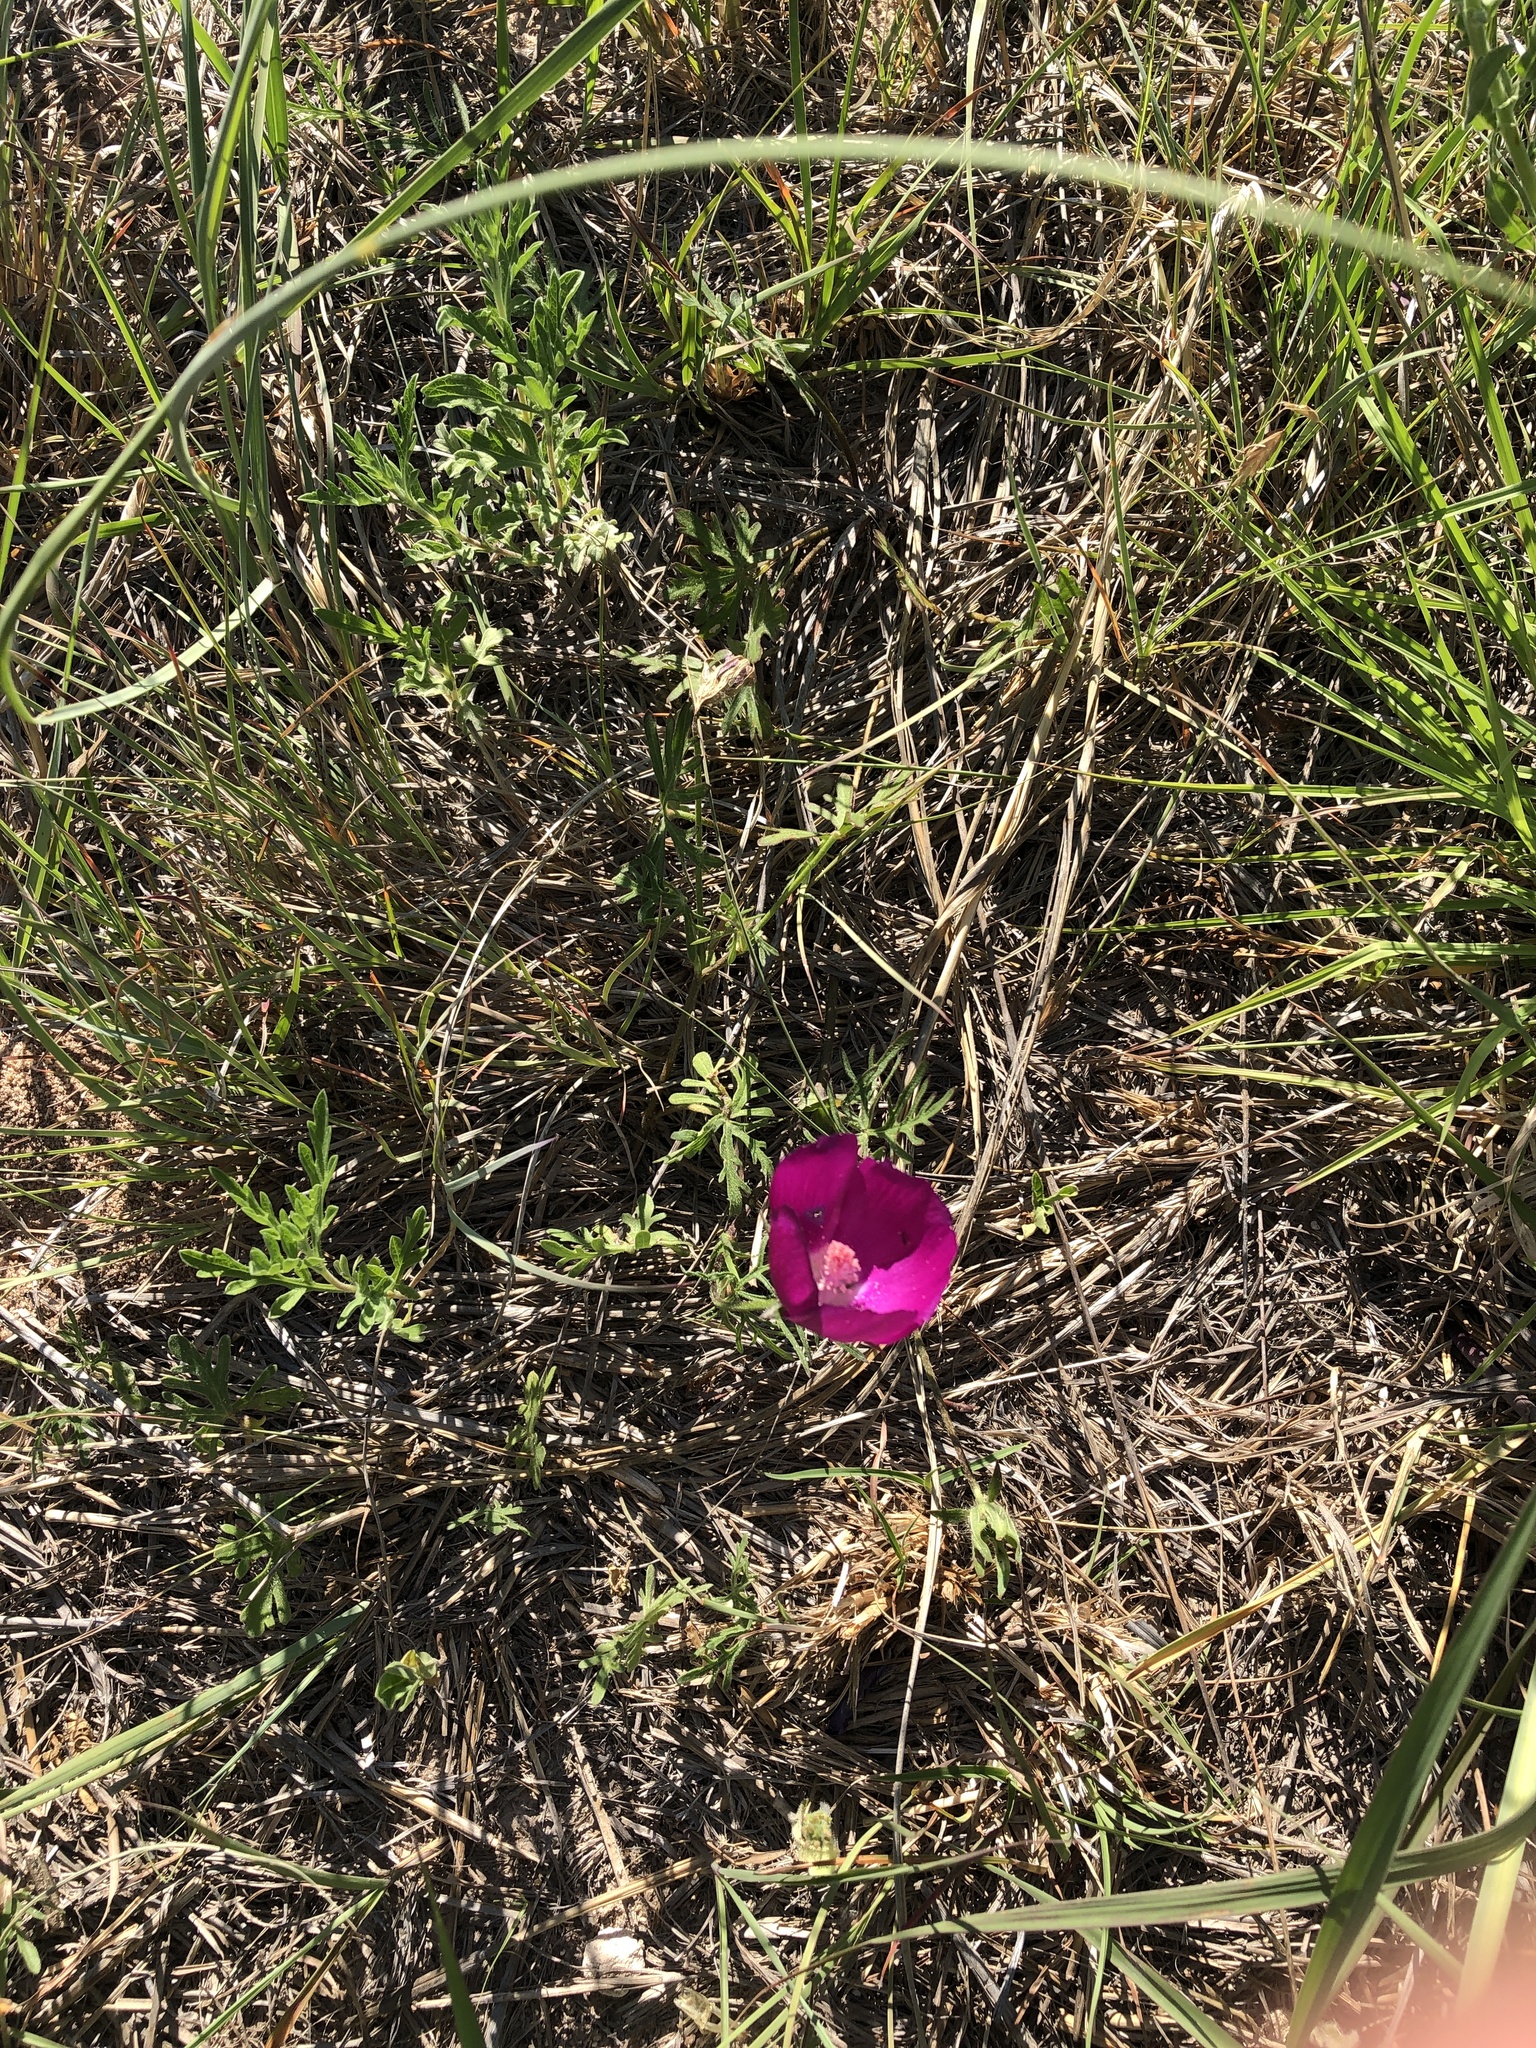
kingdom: Plantae
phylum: Tracheophyta
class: Magnoliopsida
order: Malvales
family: Malvaceae
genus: Callirhoe
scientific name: Callirhoe involucrata
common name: Purple poppy-mallow
